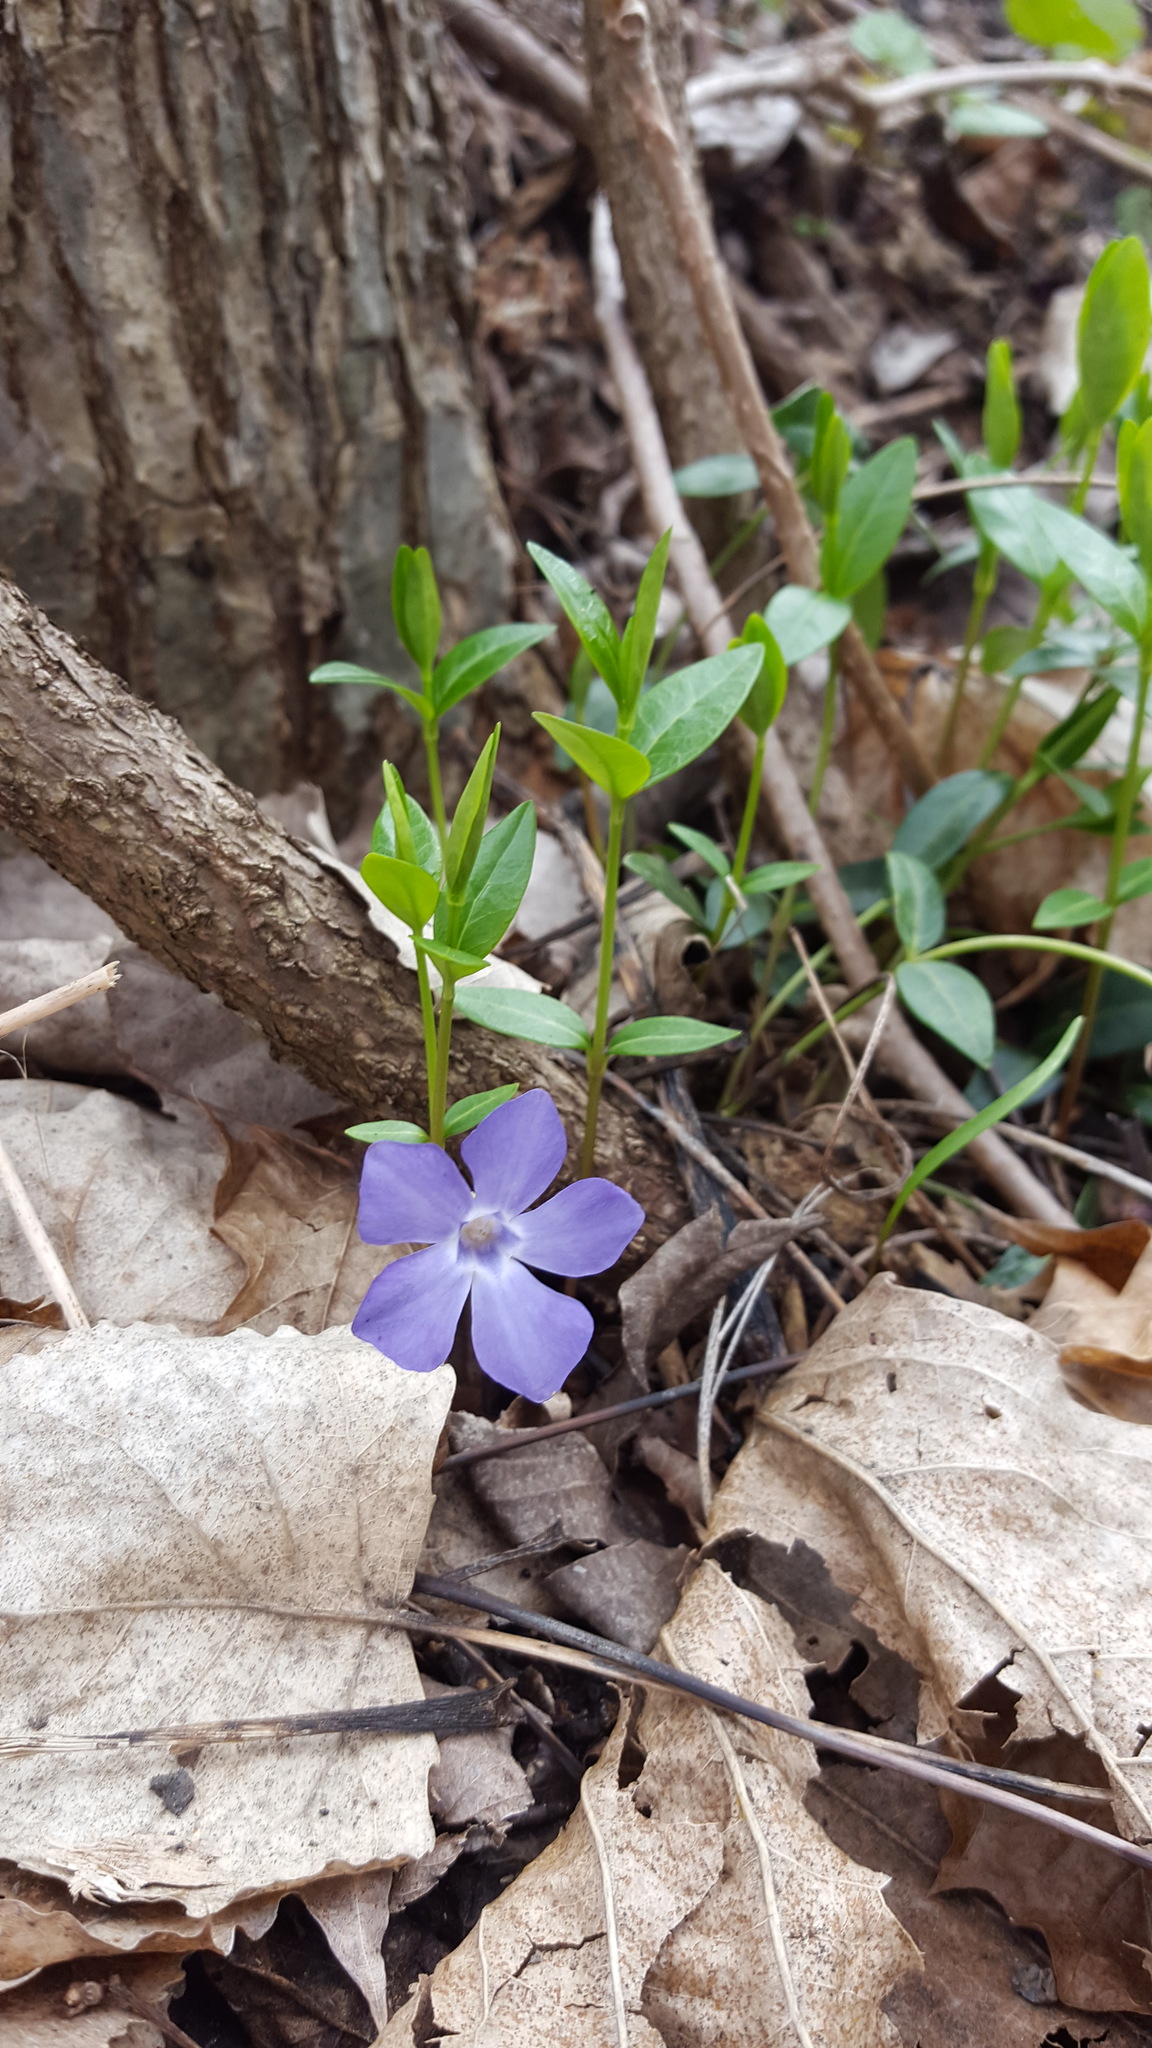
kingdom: Plantae
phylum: Tracheophyta
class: Magnoliopsida
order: Gentianales
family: Apocynaceae
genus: Vinca
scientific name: Vinca minor
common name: Lesser periwinkle
